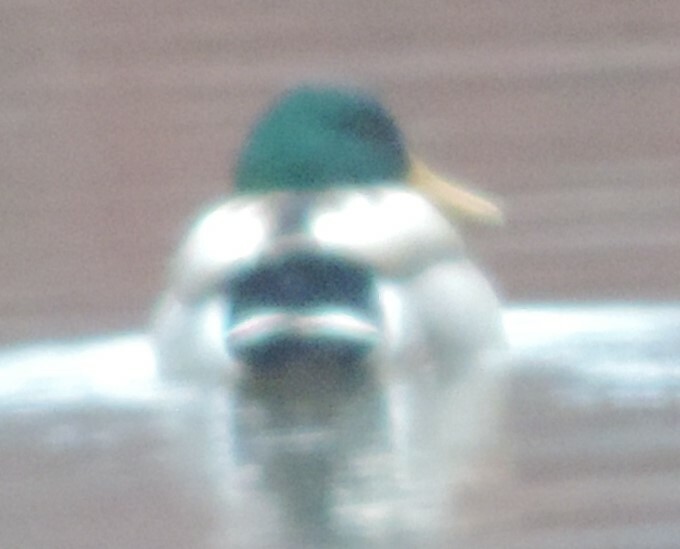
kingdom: Animalia
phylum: Chordata
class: Aves
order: Anseriformes
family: Anatidae
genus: Anas
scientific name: Anas platyrhynchos
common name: Mallard
